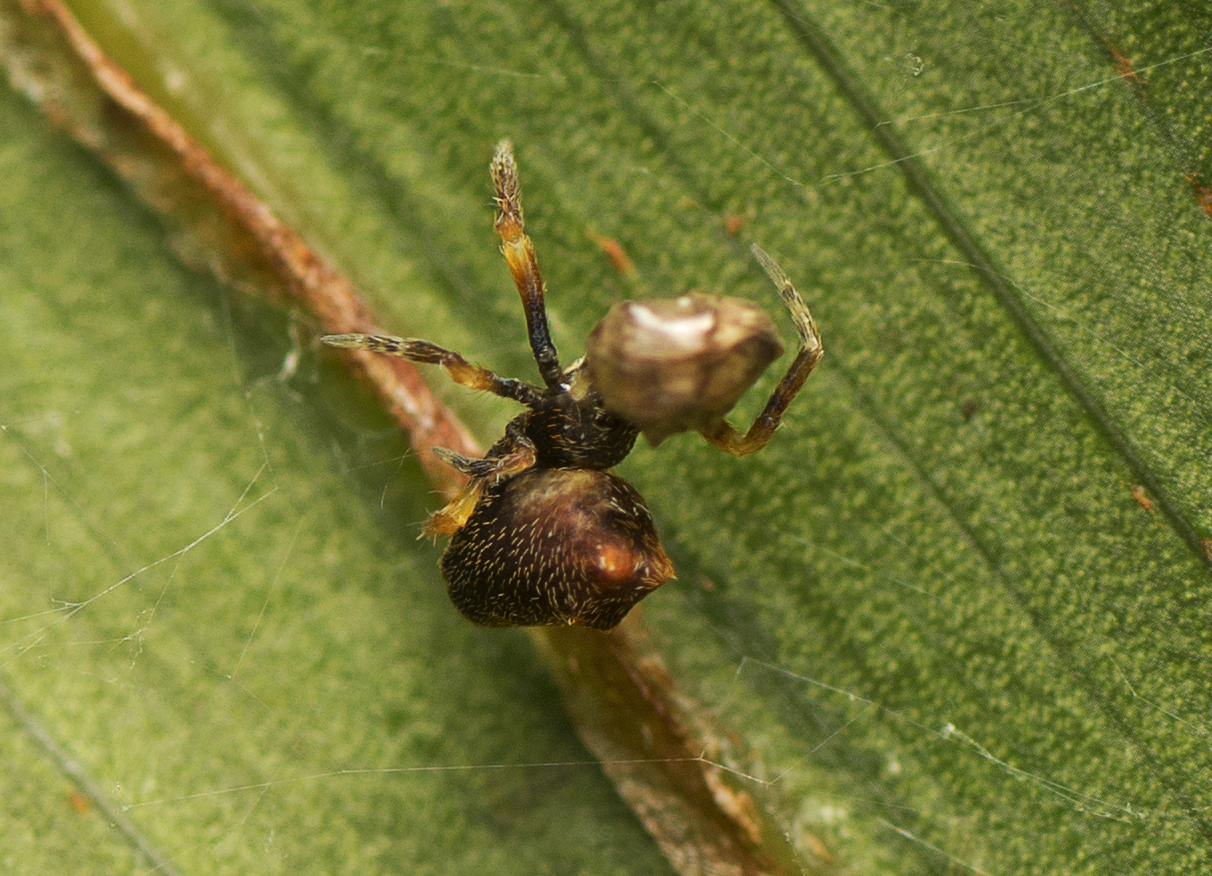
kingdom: Animalia
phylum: Arthropoda
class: Arachnida
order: Araneae
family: Uloboridae
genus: Philoponella
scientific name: Philoponella congregabilis
